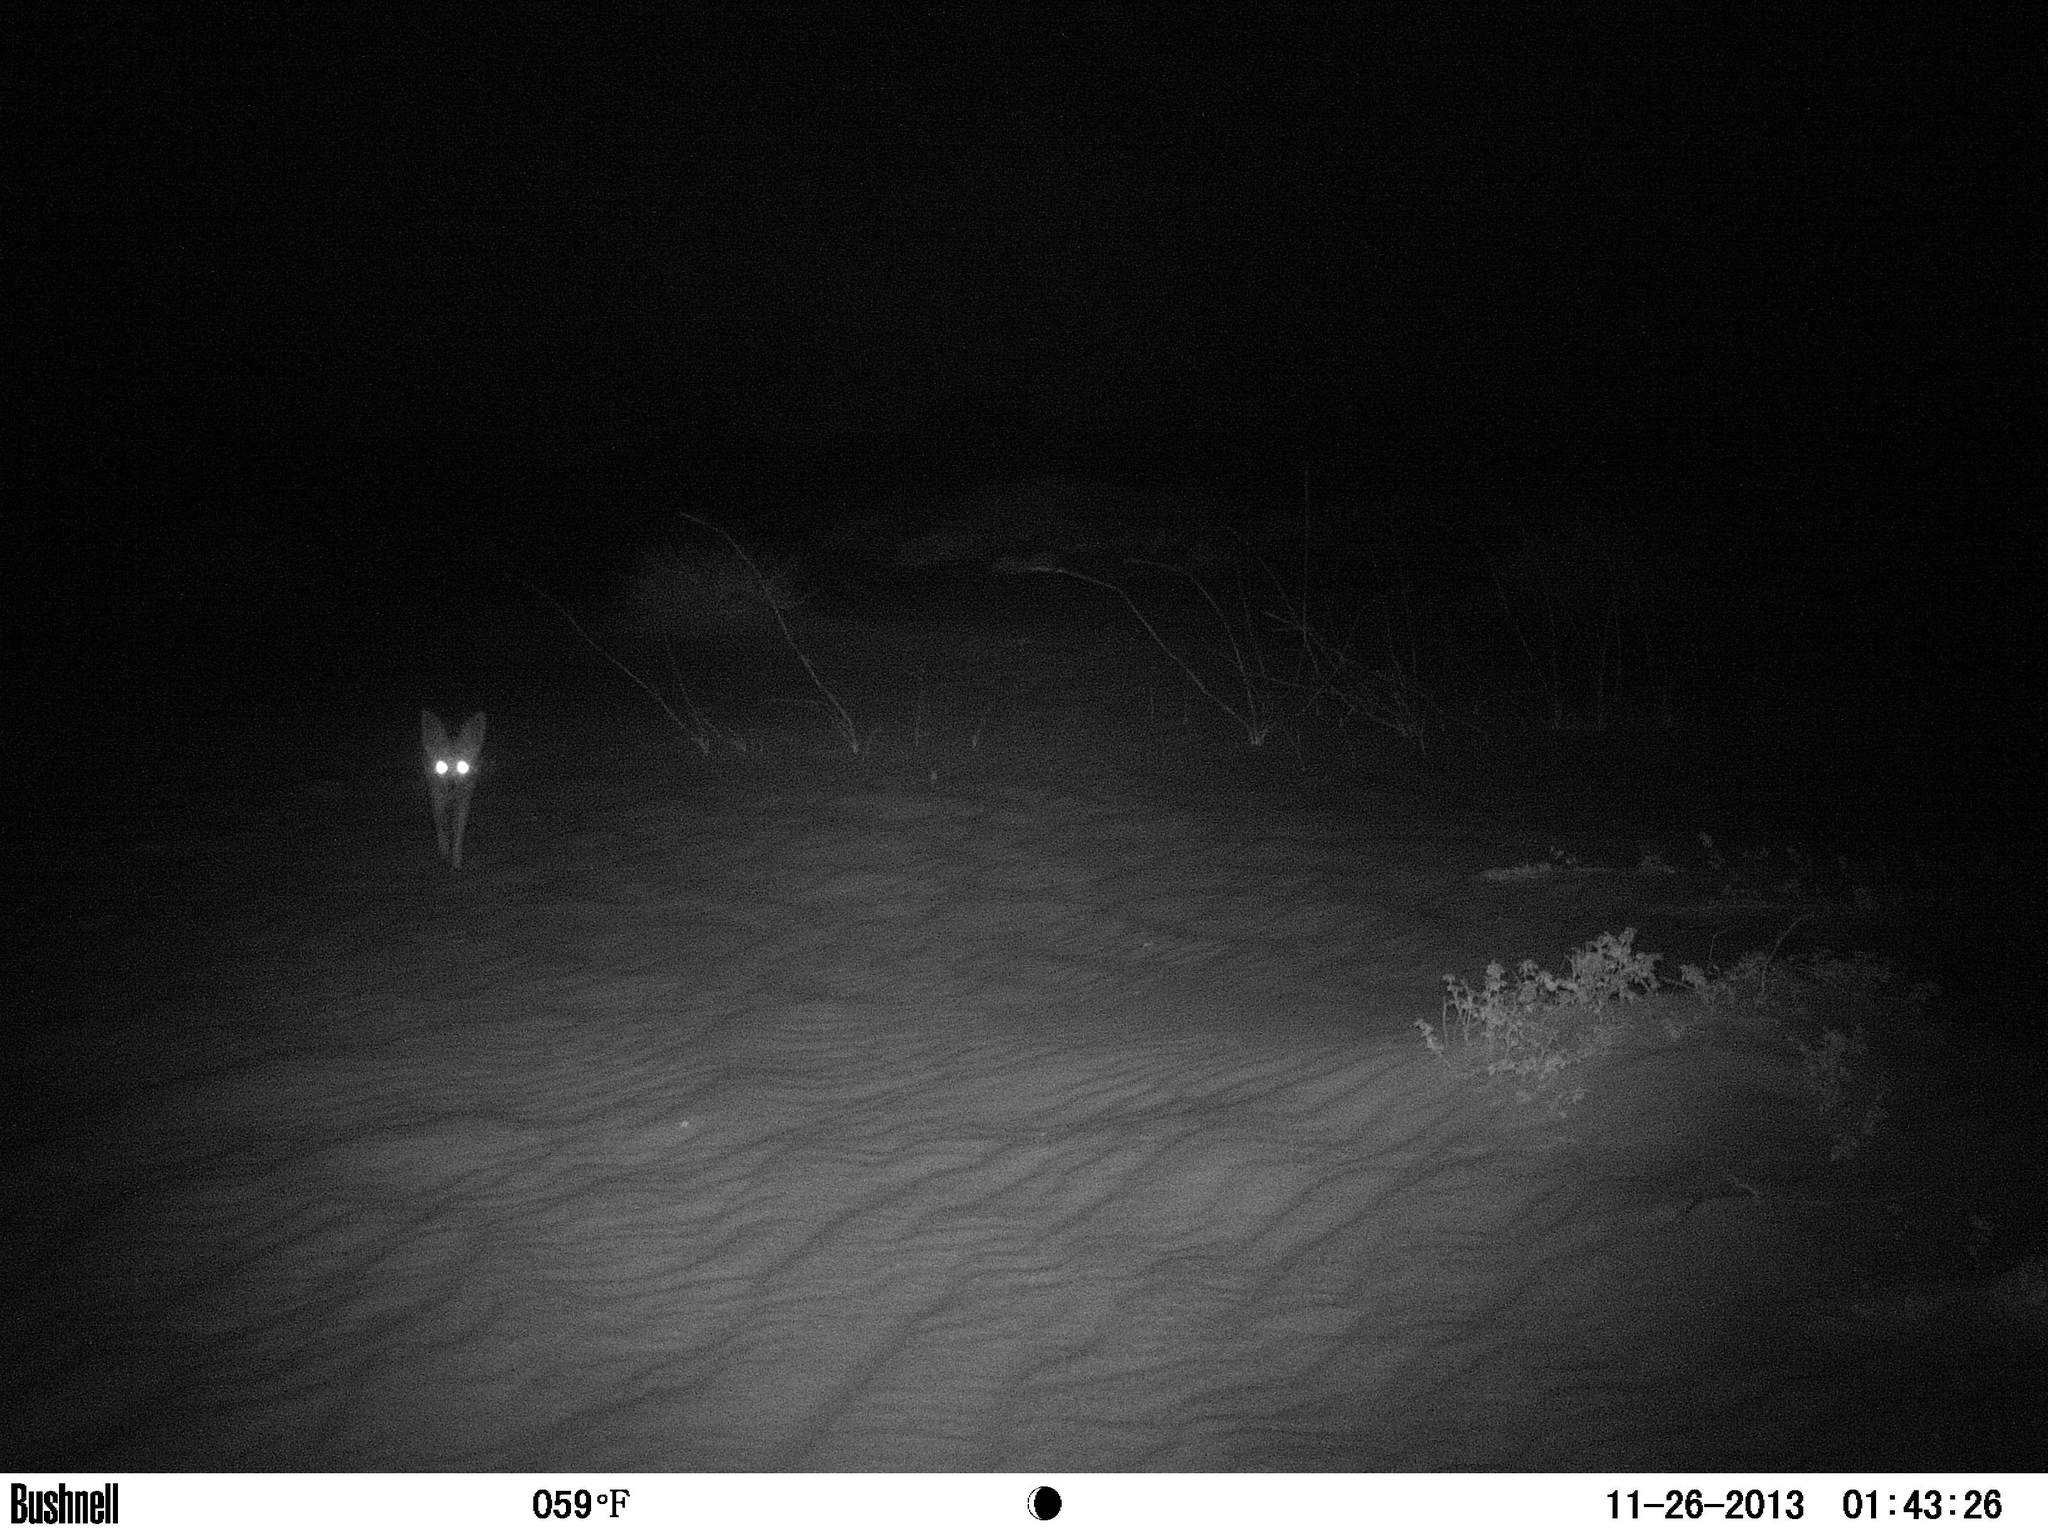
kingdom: Animalia
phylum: Chordata
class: Mammalia
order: Carnivora
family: Canidae
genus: Vulpes
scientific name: Vulpes chama
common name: Cape fox
